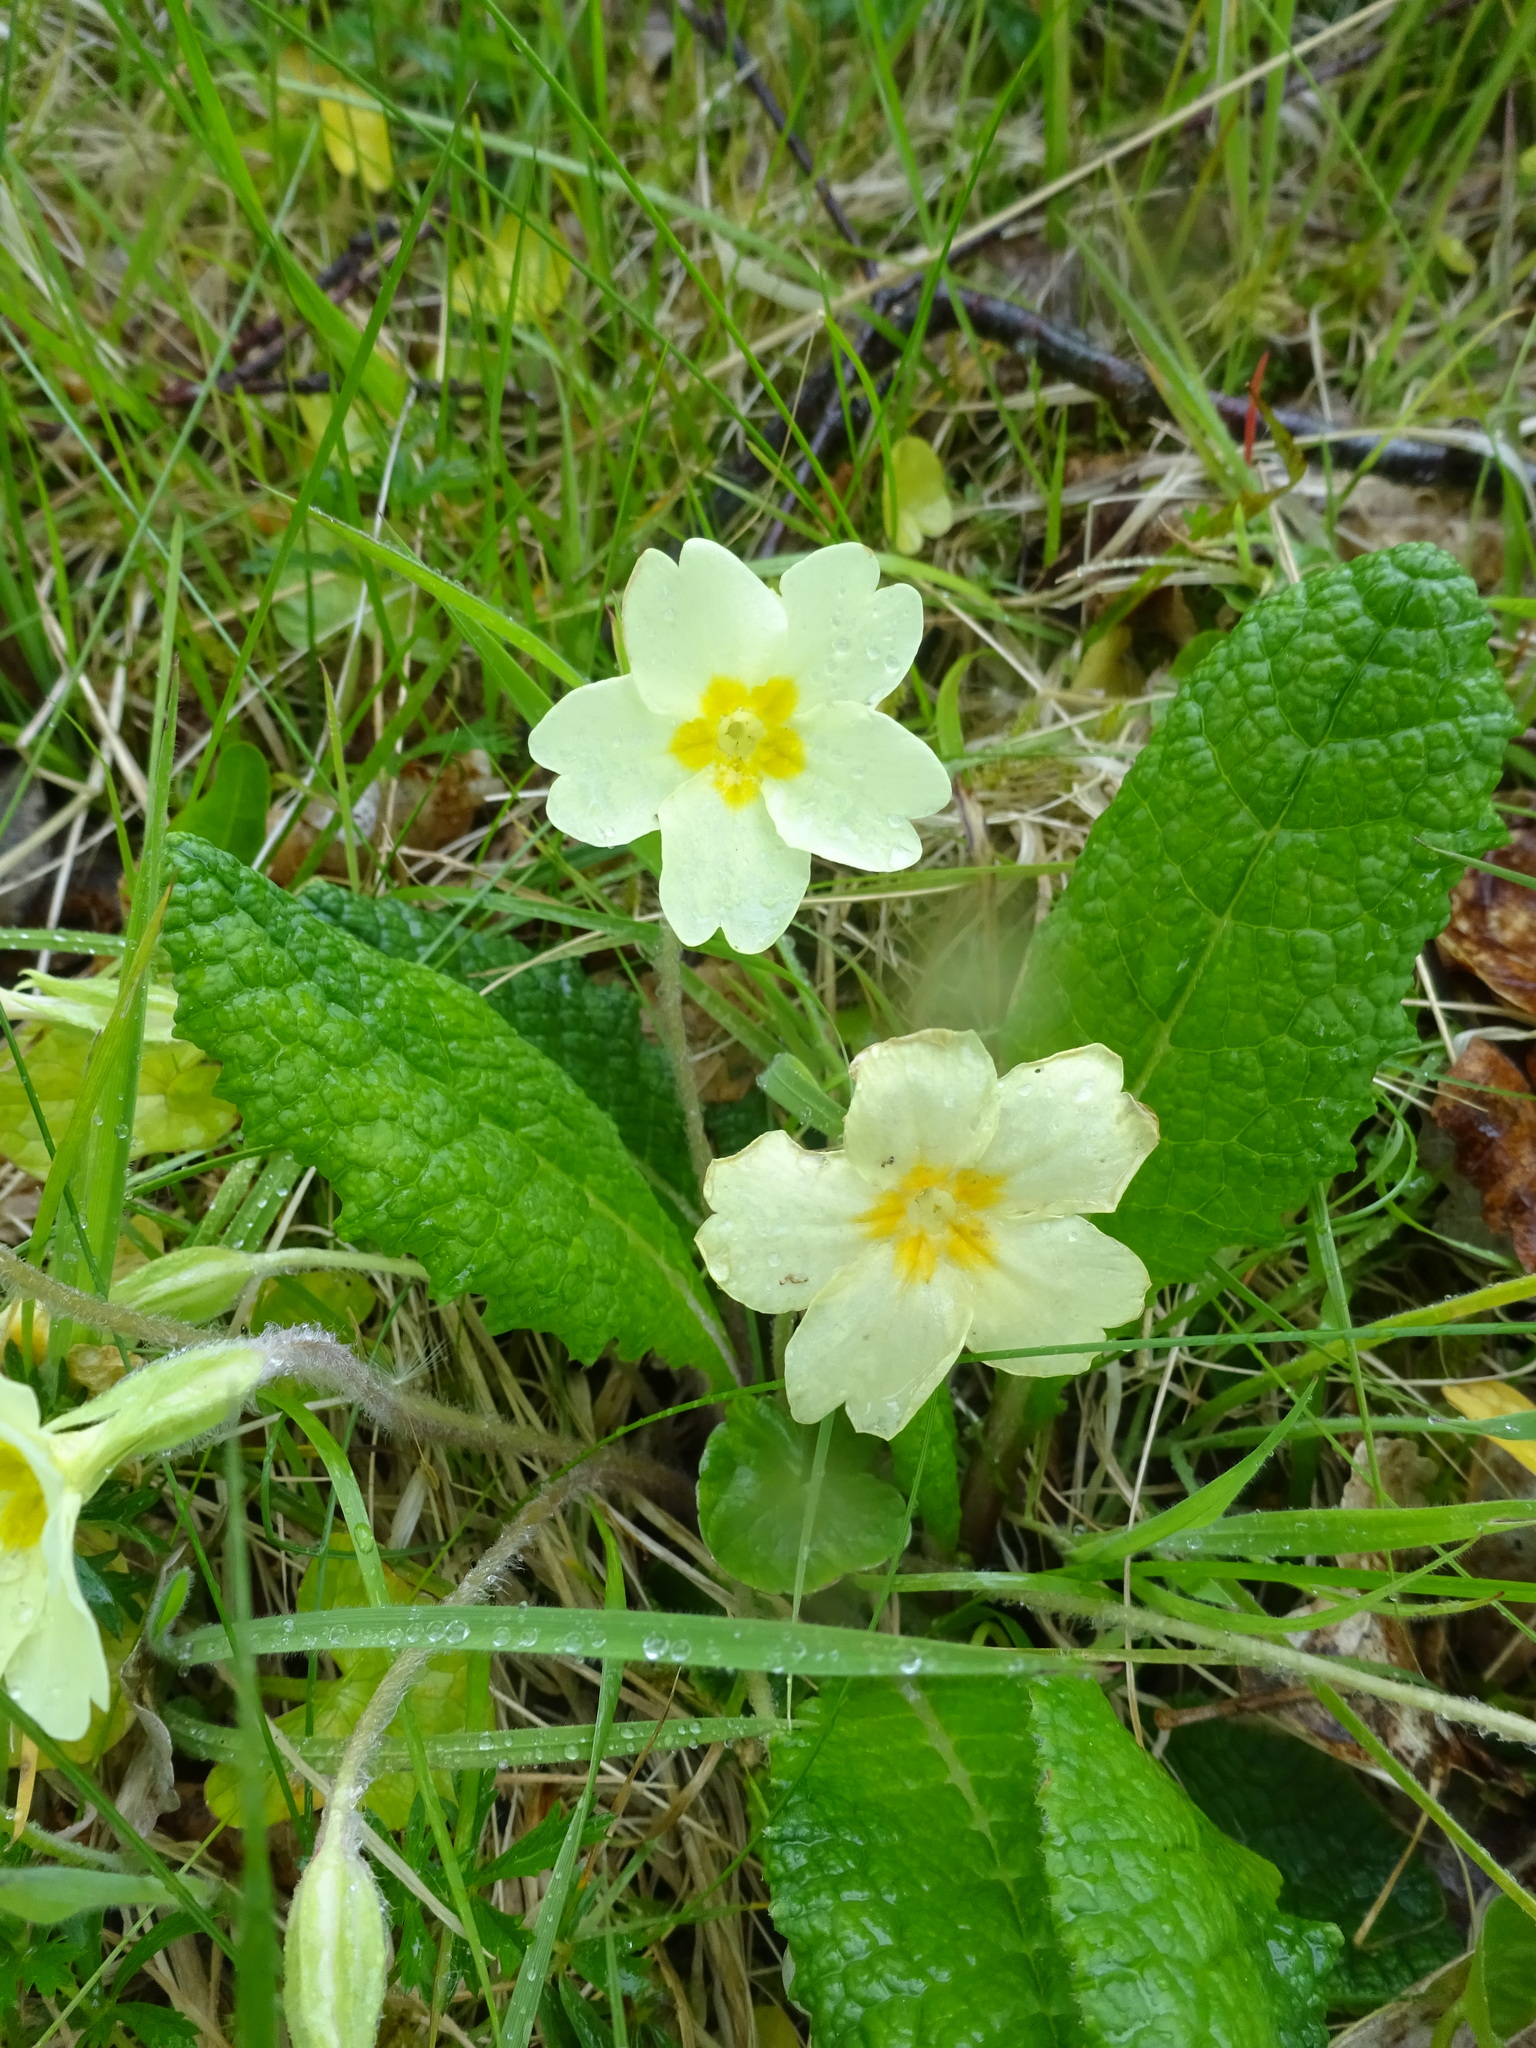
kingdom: Plantae
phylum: Tracheophyta
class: Magnoliopsida
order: Ericales
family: Primulaceae
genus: Primula
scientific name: Primula vulgaris
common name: Primrose
